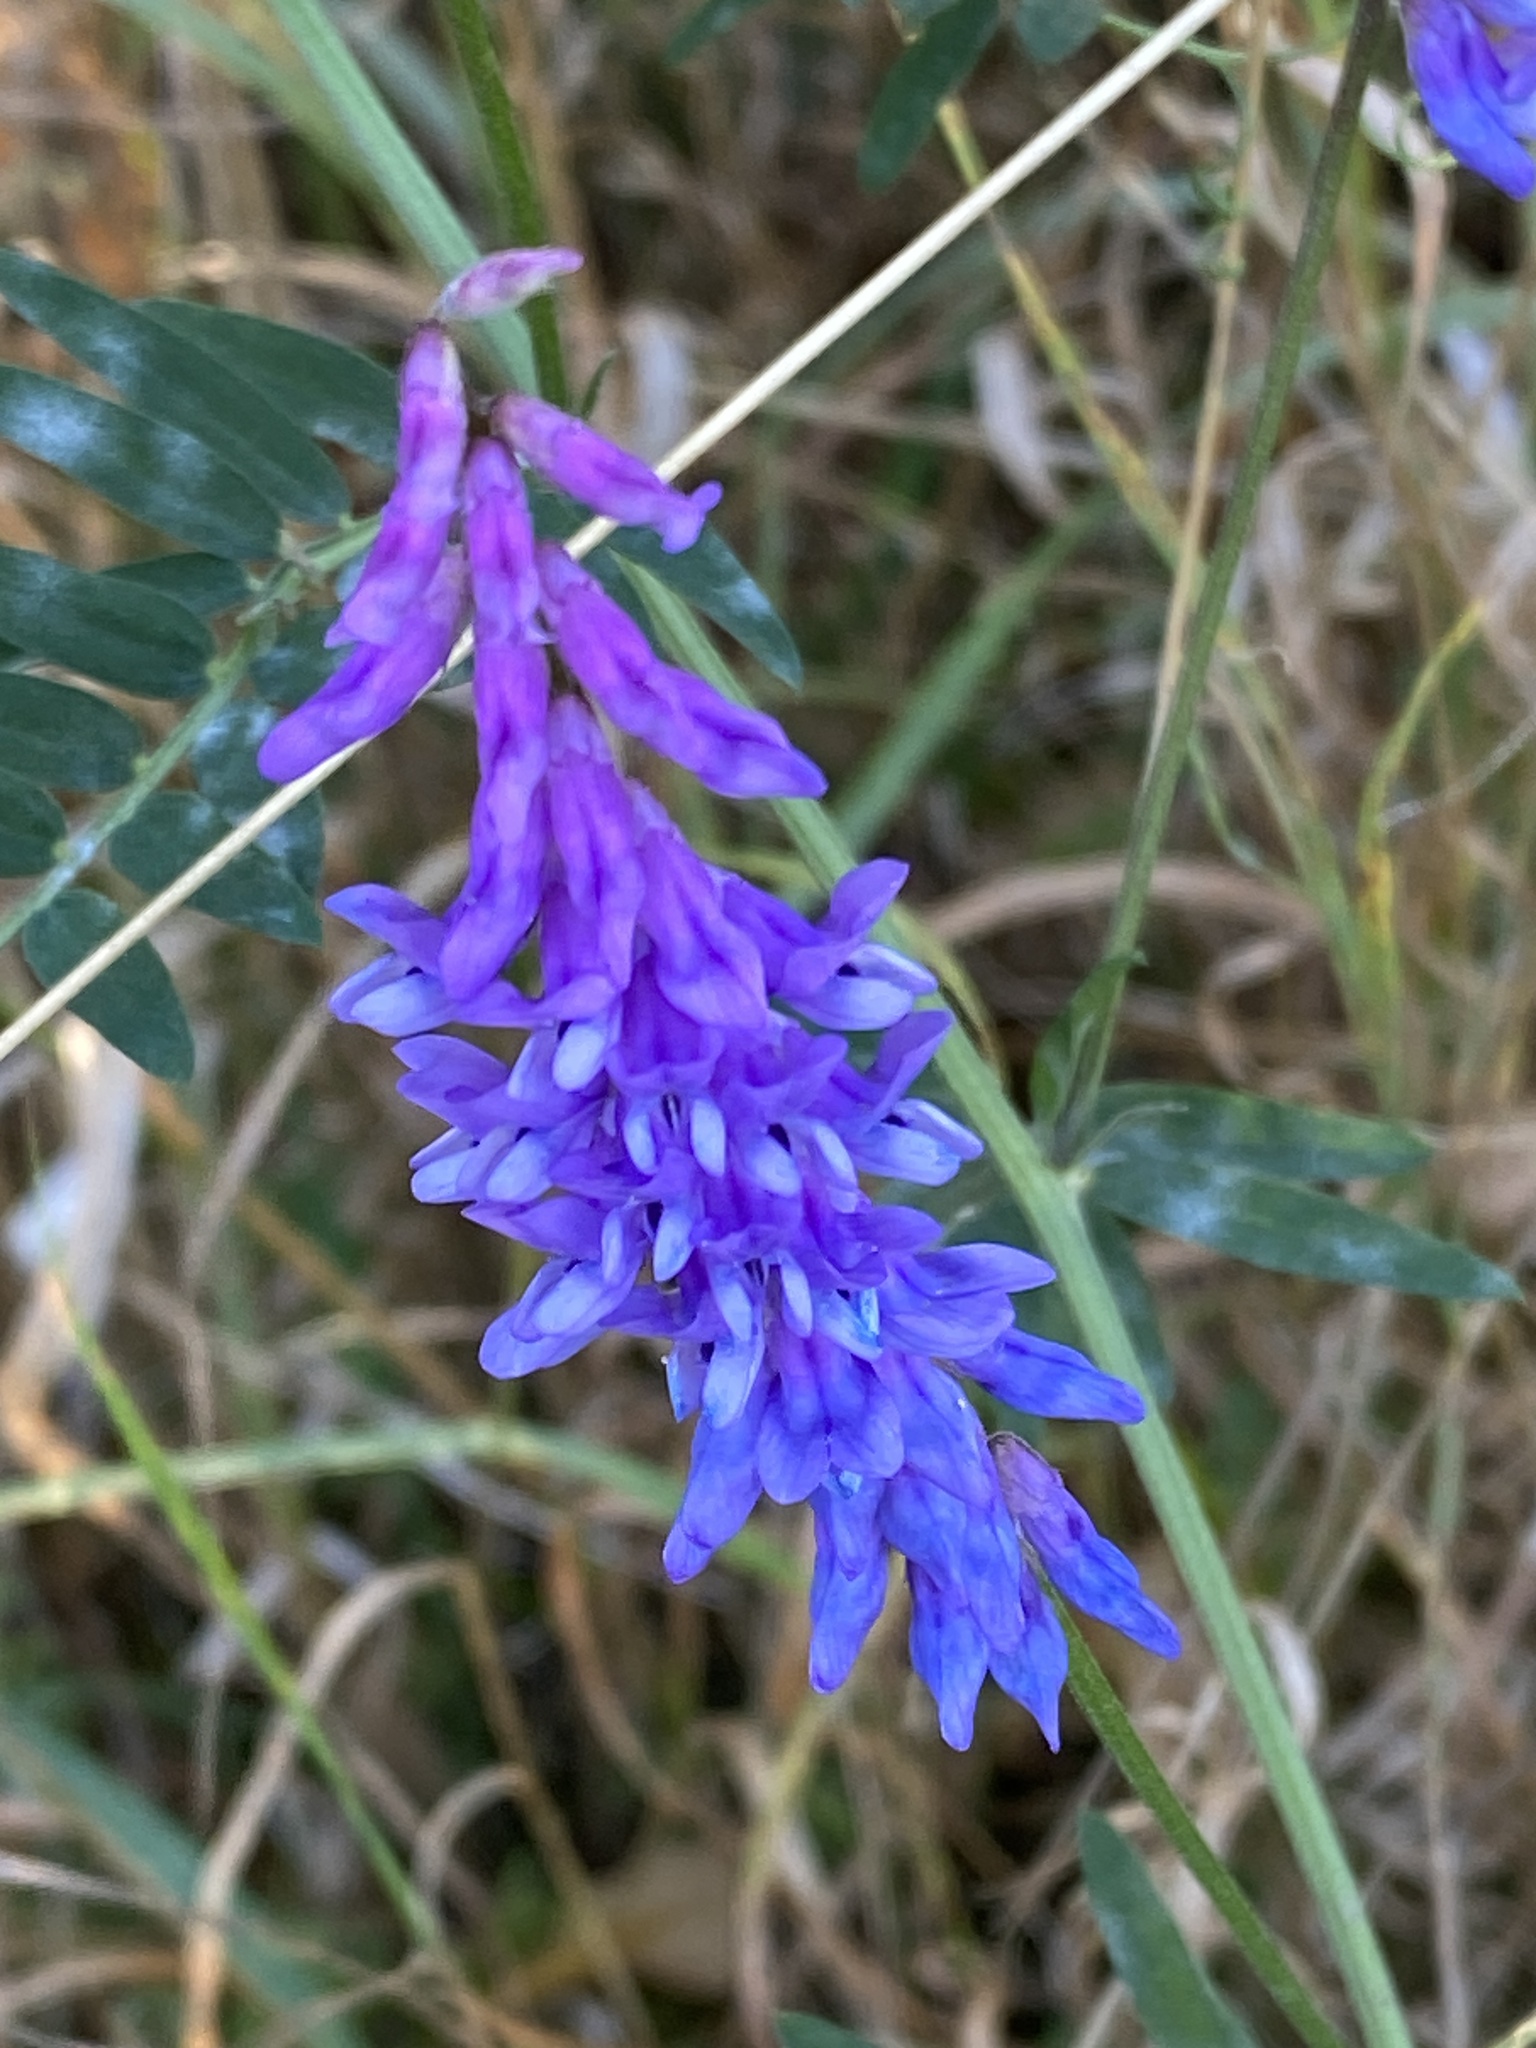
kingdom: Plantae
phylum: Tracheophyta
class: Magnoliopsida
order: Fabales
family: Fabaceae
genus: Vicia
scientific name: Vicia cracca
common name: Bird vetch
